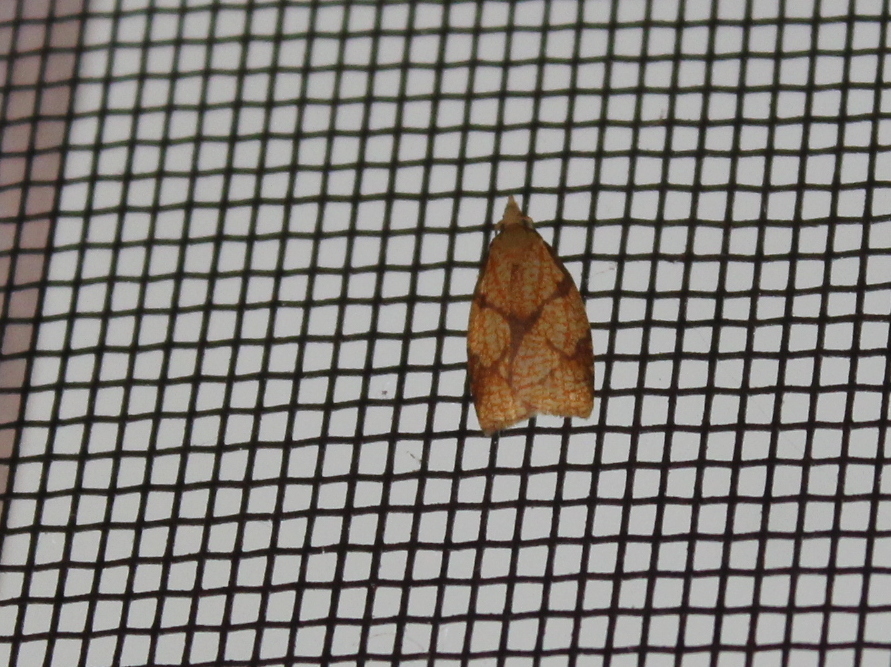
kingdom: Animalia
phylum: Arthropoda
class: Insecta
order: Lepidoptera
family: Tortricidae
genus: Cenopis
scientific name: Cenopis reticulatana
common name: Reticulated fruitworm moth
